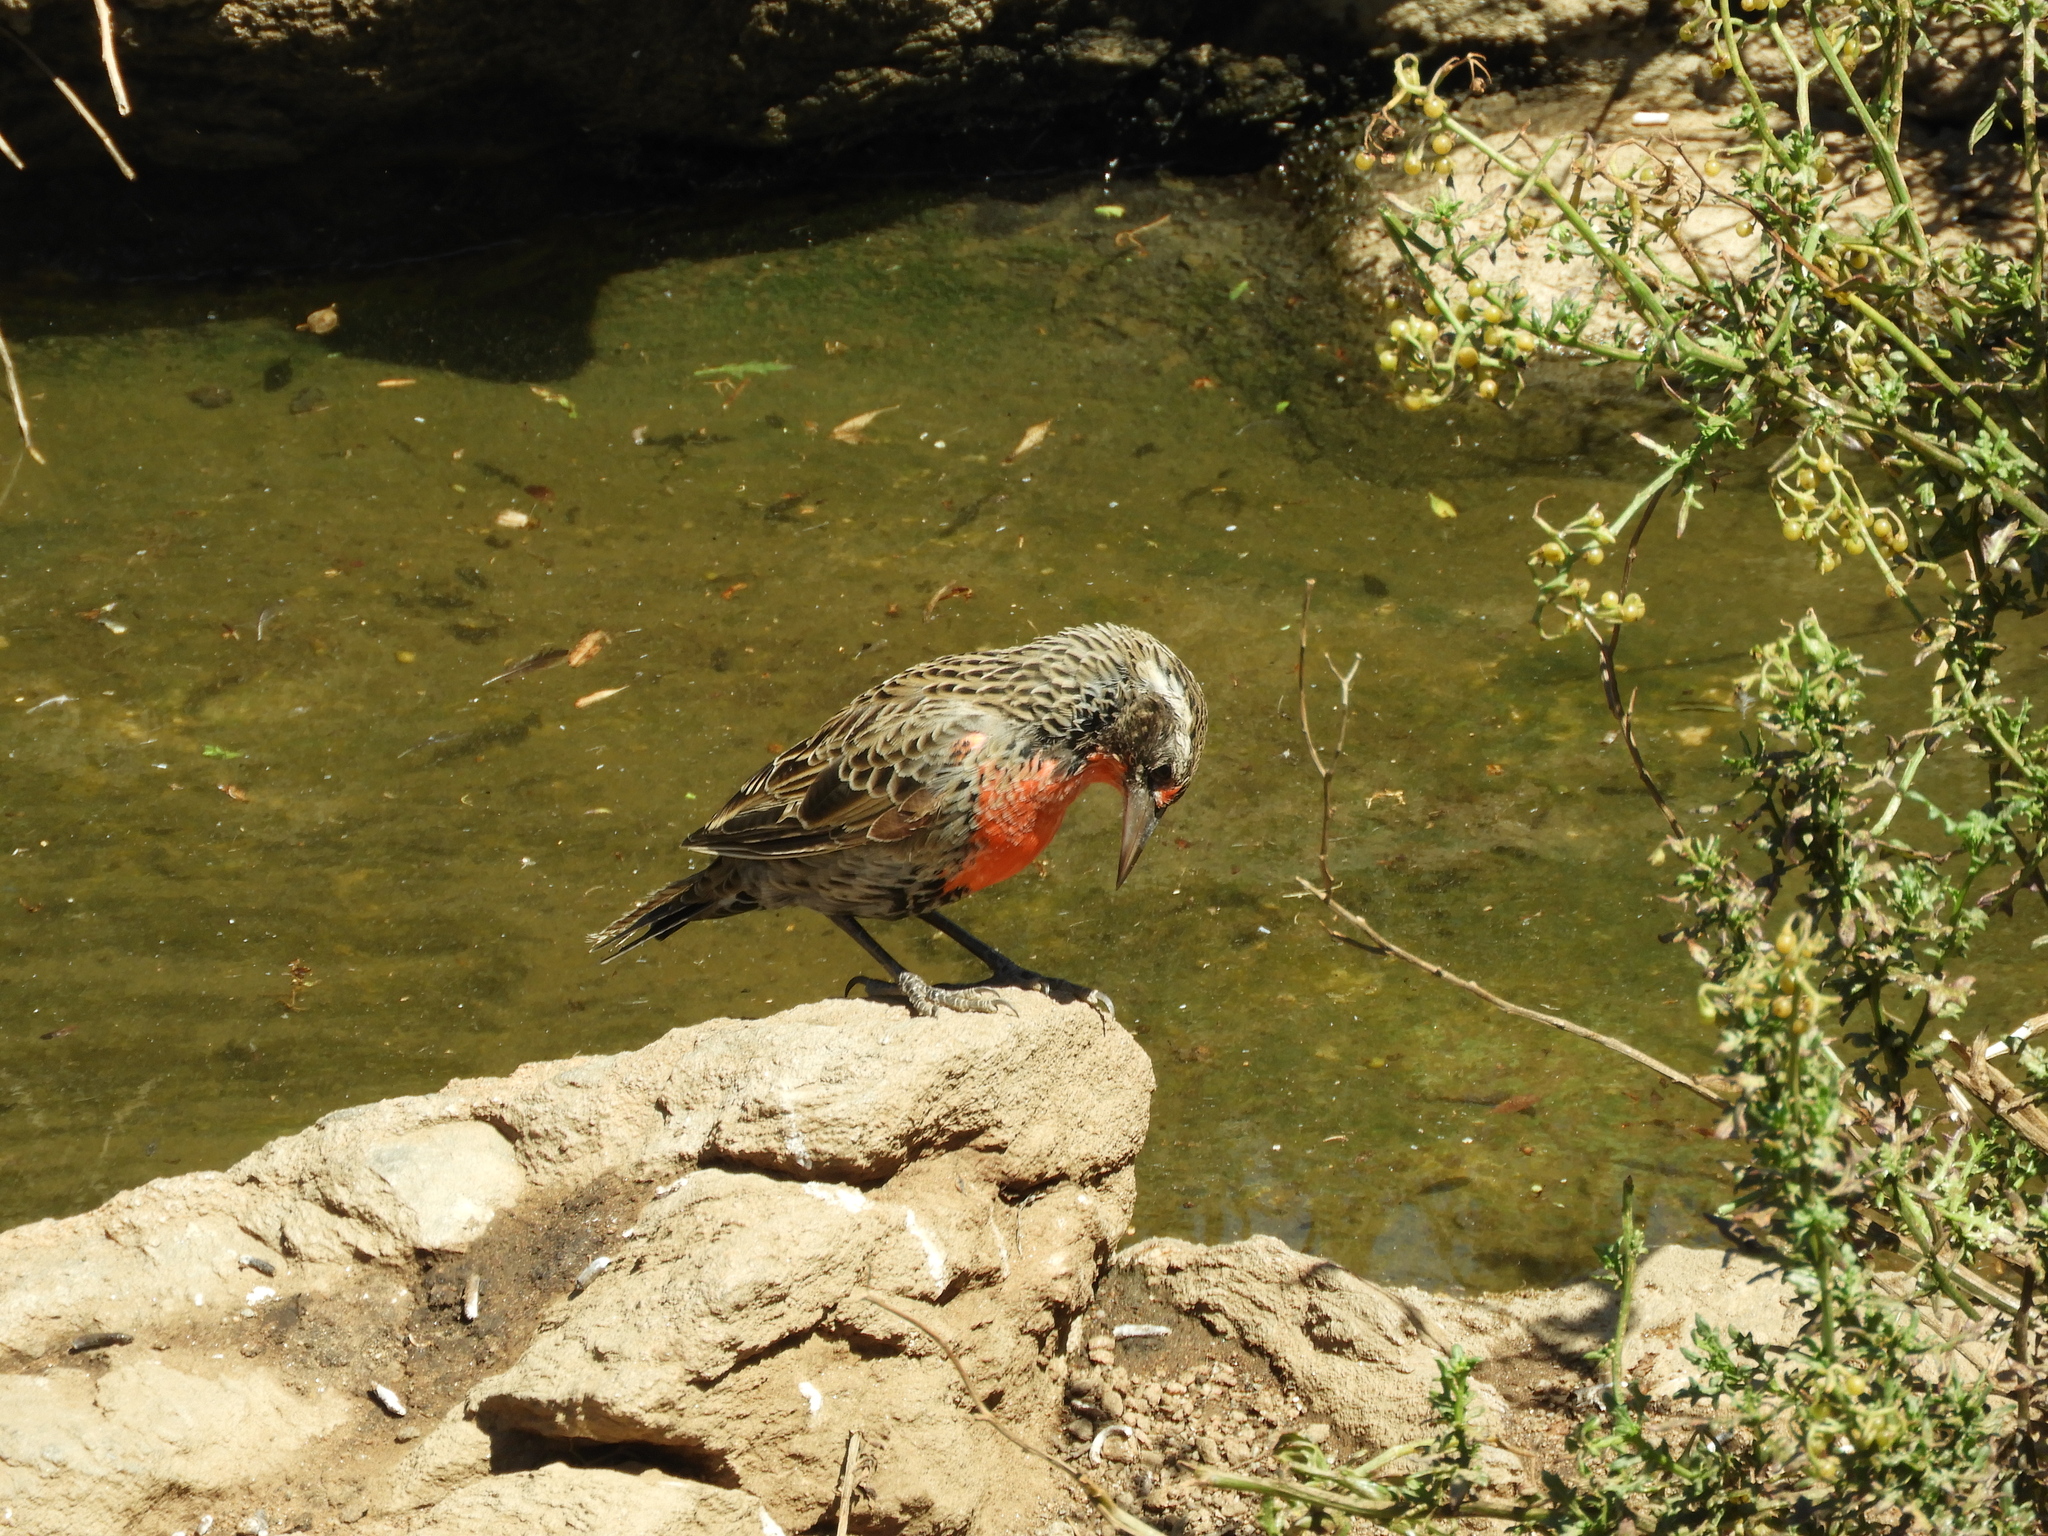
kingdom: Animalia
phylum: Chordata
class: Aves
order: Passeriformes
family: Icteridae
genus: Sturnella
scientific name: Sturnella loyca
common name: Long-tailed meadowlark
